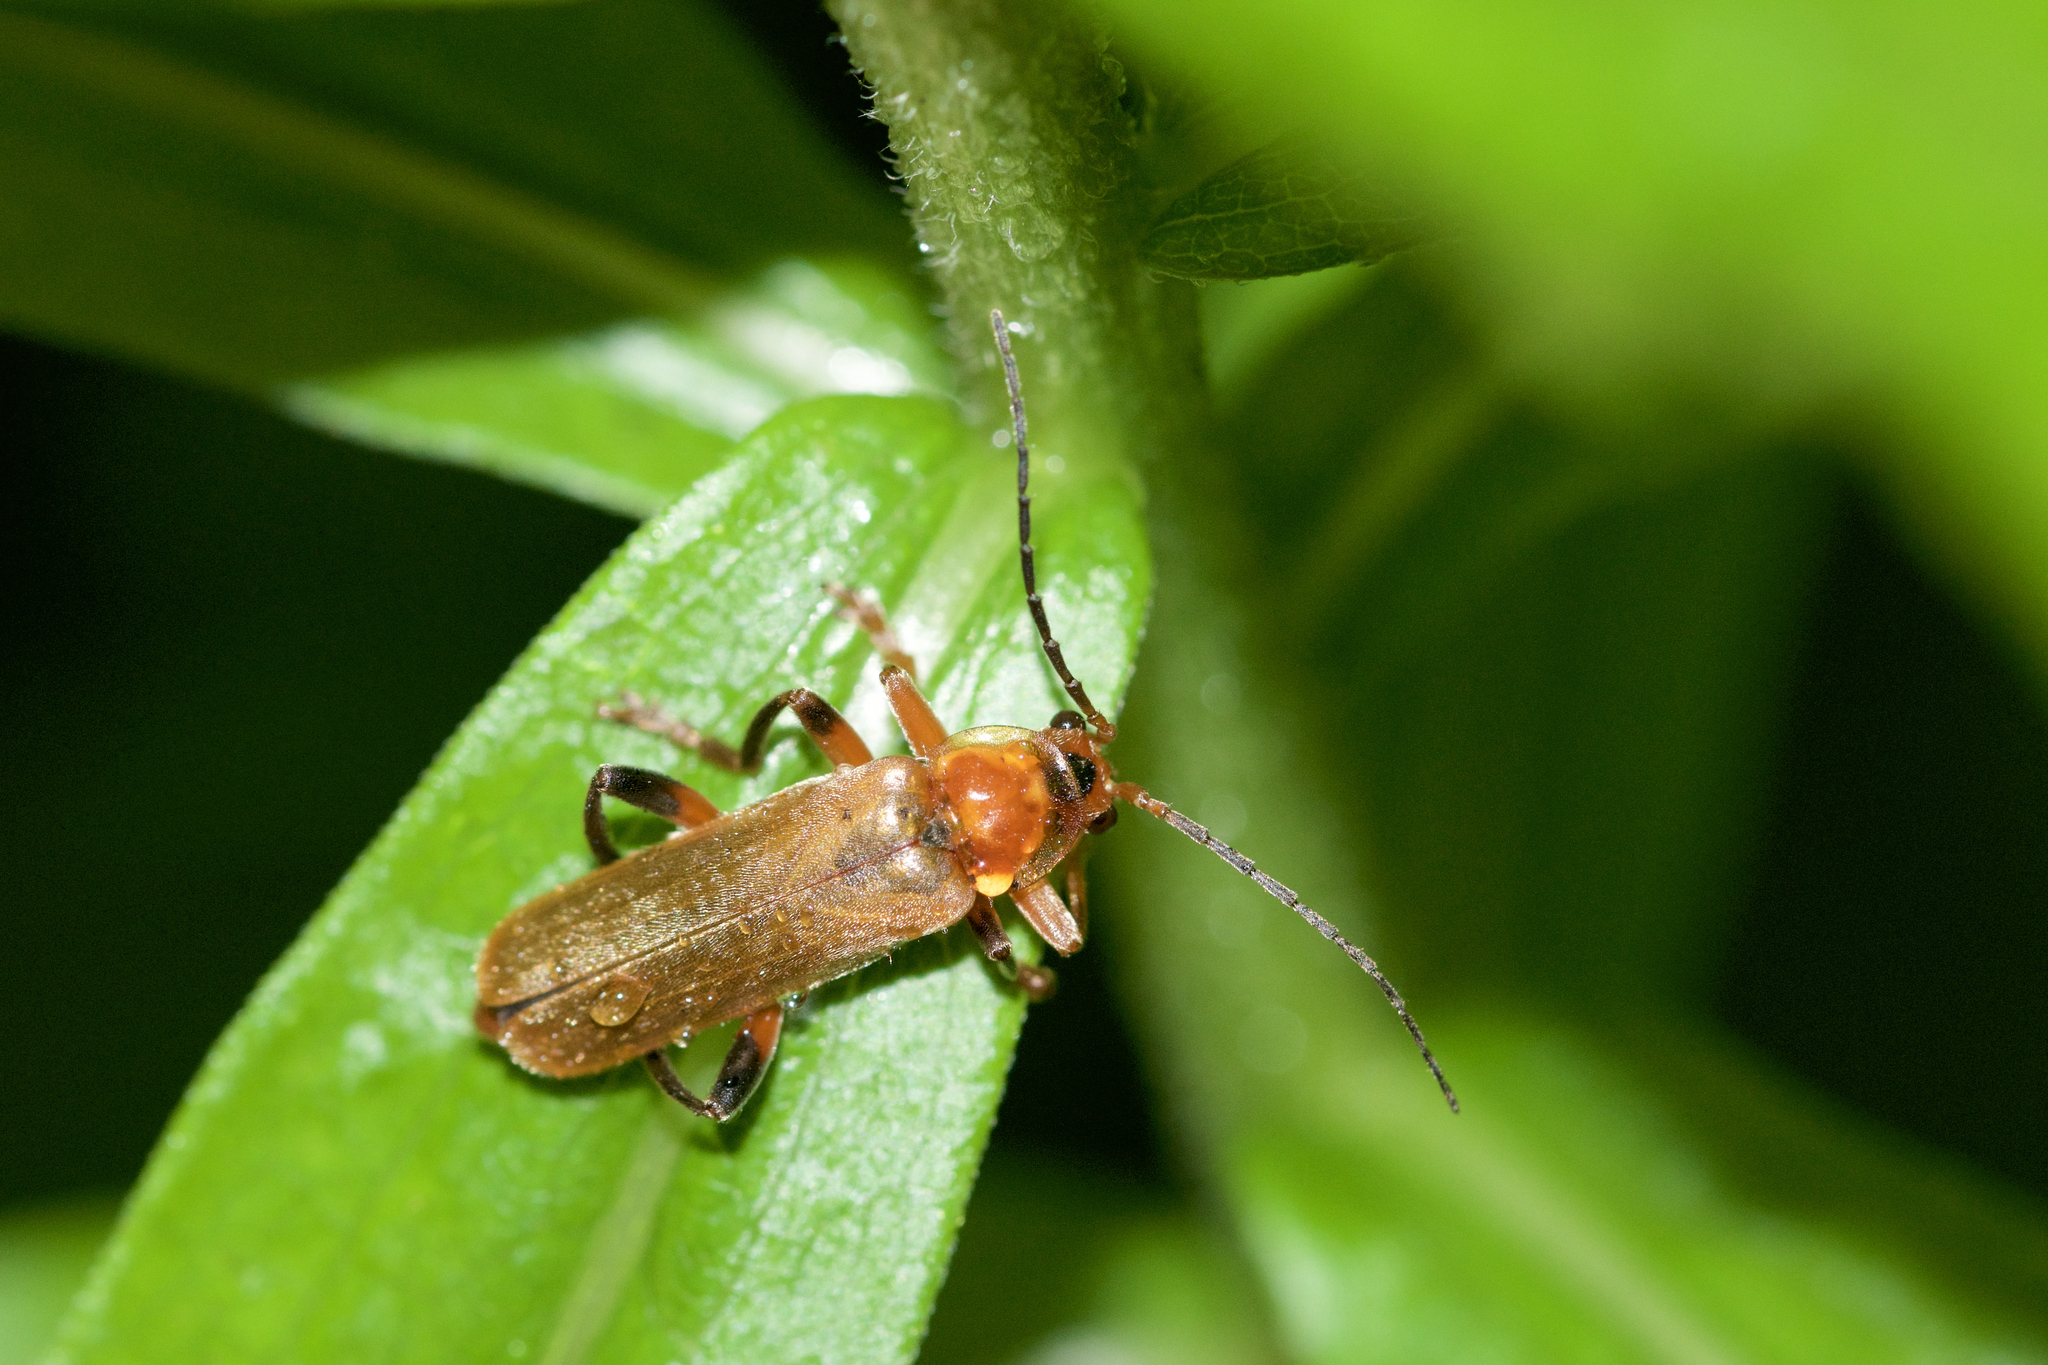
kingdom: Animalia
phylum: Arthropoda
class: Insecta
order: Coleoptera
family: Cantharidae
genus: Cantharis
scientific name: Cantharis livida
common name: Livid soldier beetle
